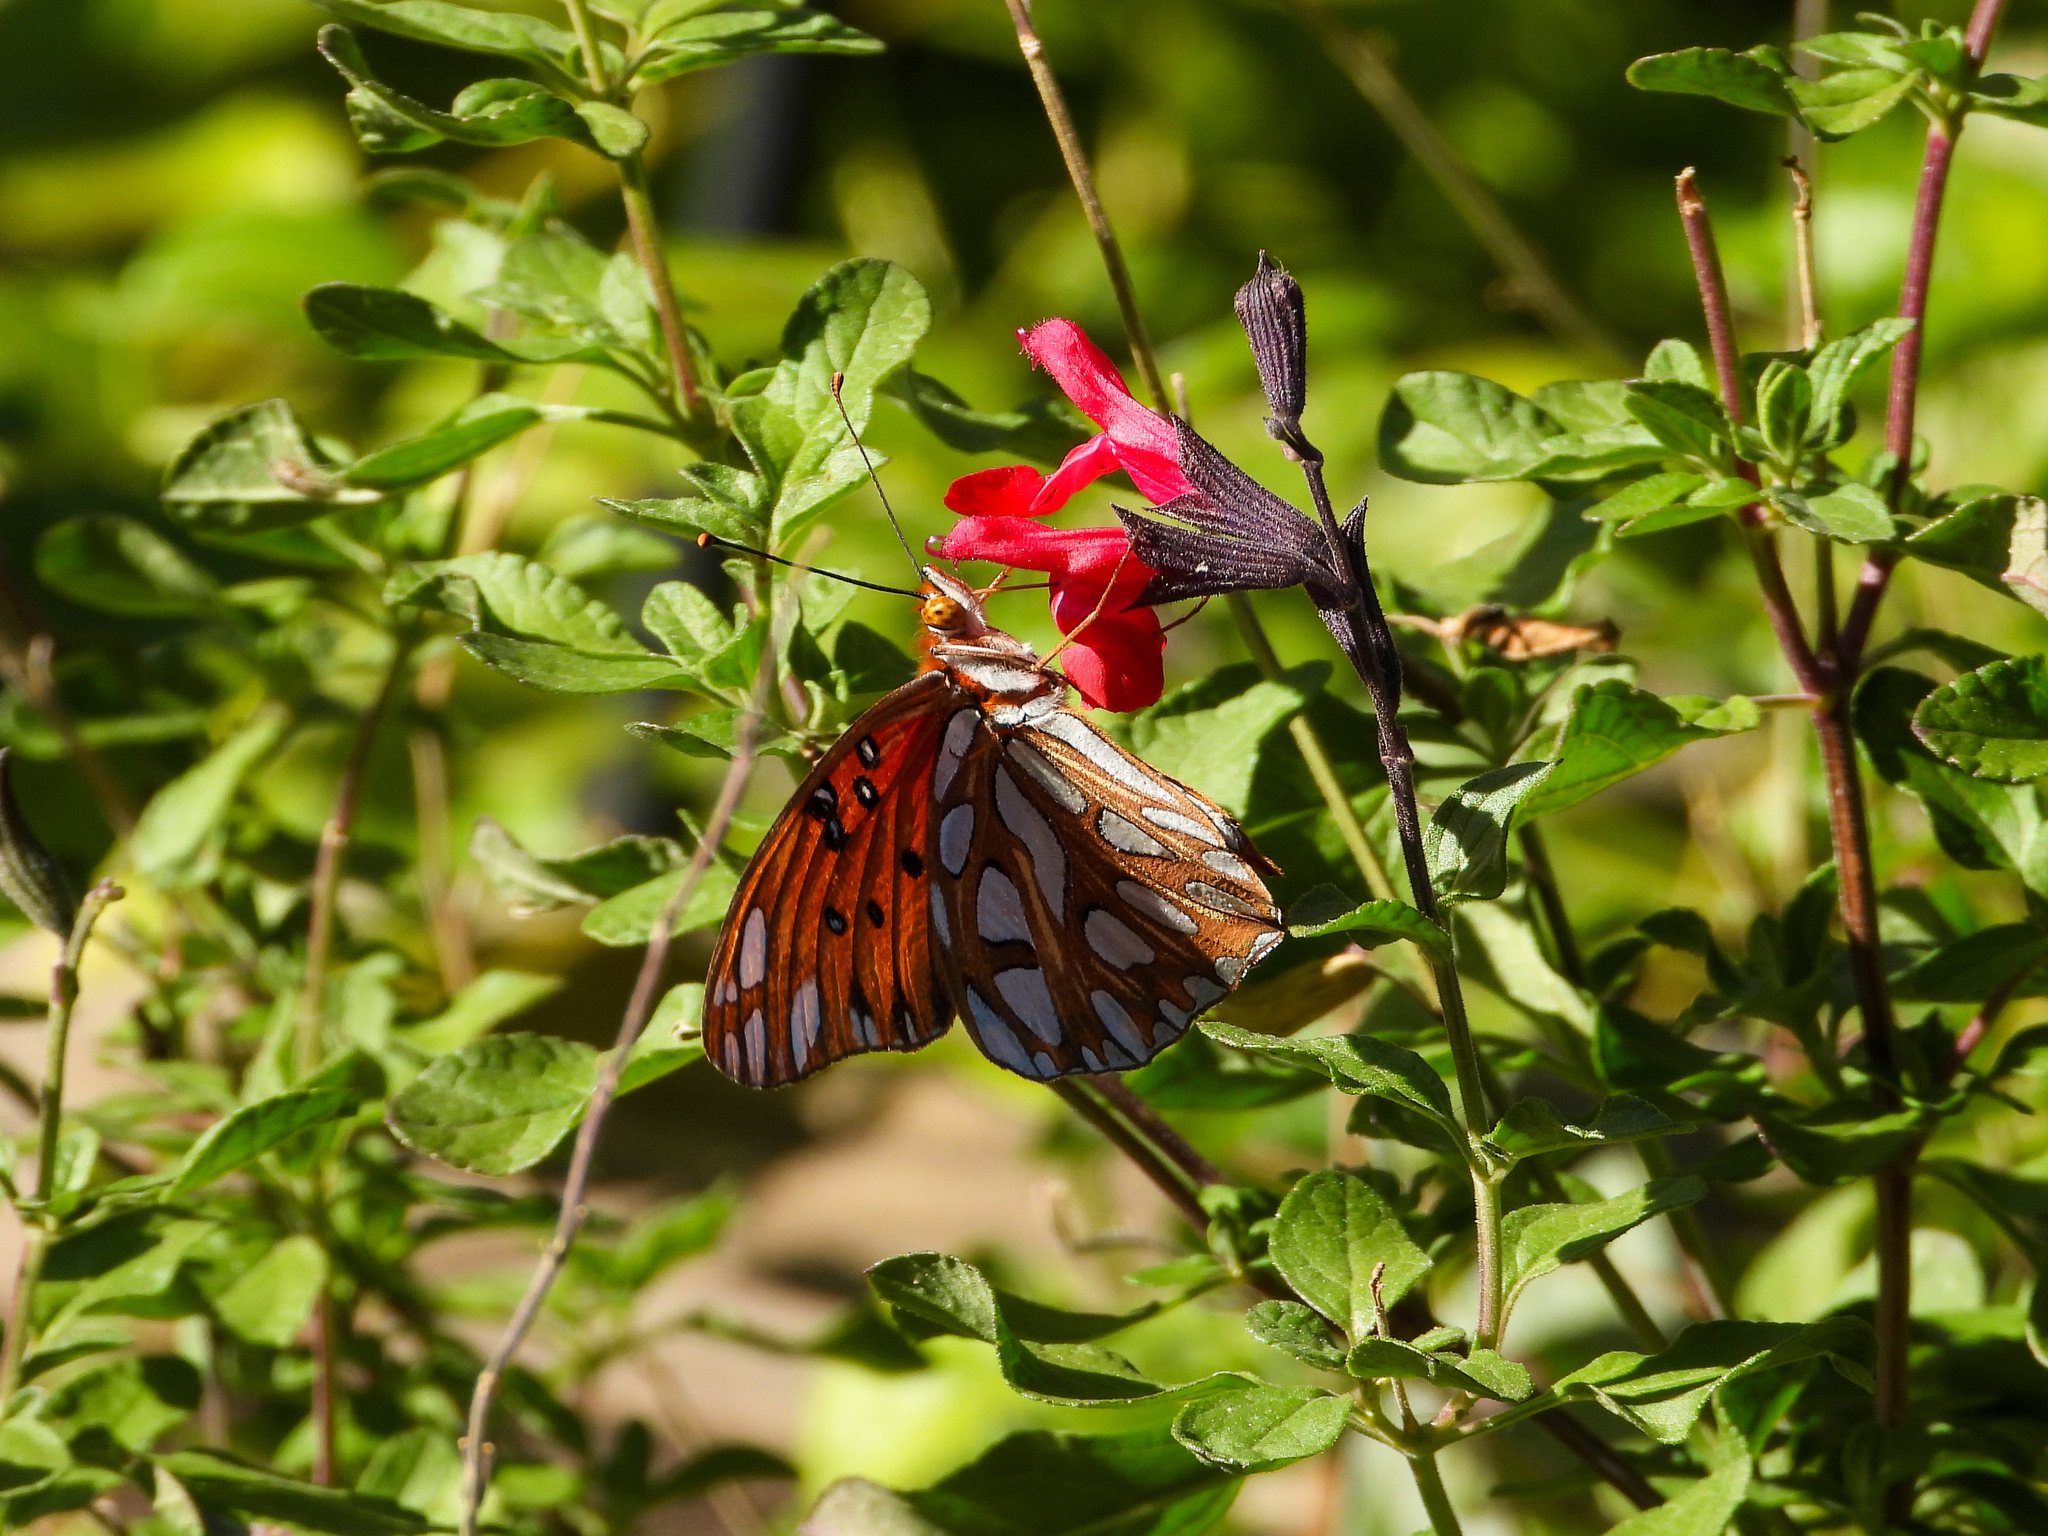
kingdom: Animalia
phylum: Arthropoda
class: Insecta
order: Lepidoptera
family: Nymphalidae
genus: Dione
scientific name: Dione vanillae
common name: Gulf fritillary
